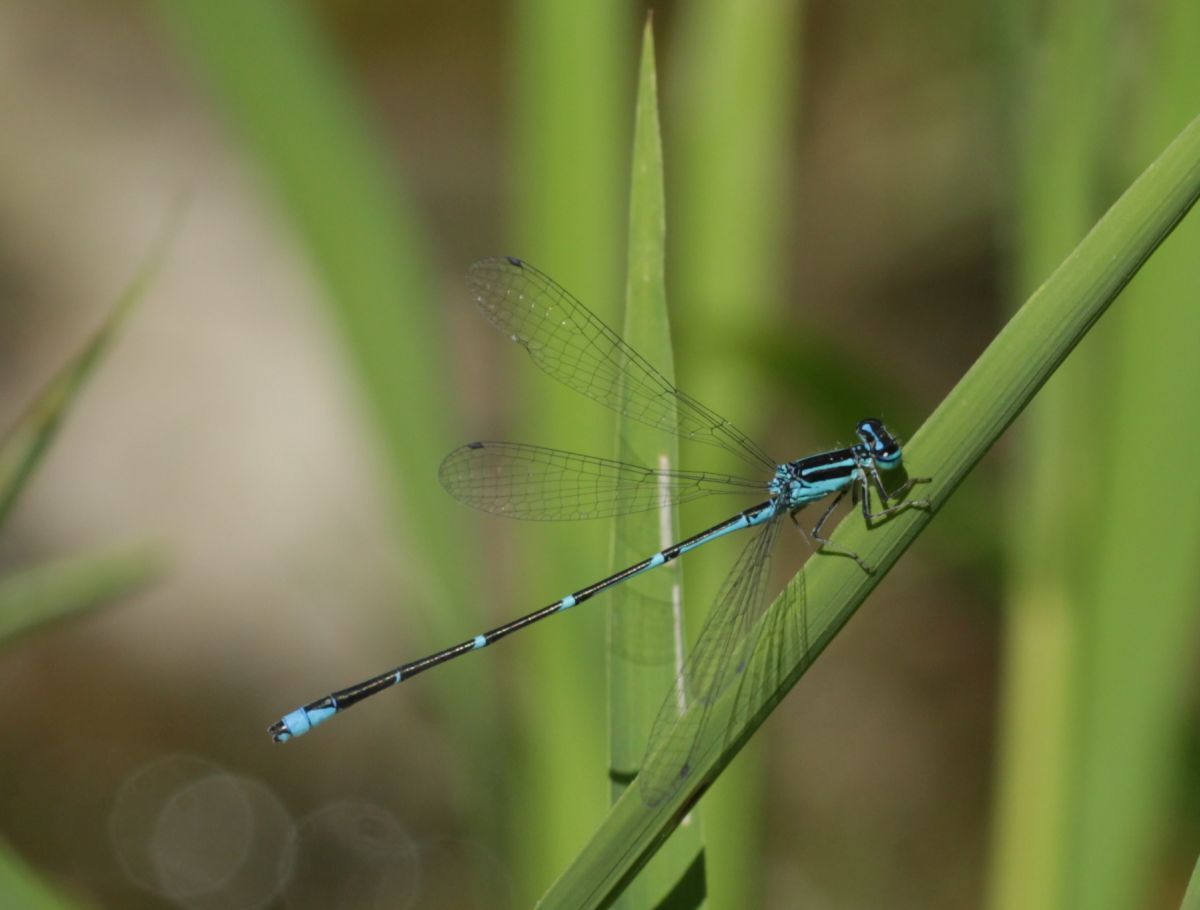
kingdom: Animalia
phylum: Arthropoda
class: Insecta
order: Odonata
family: Coenagrionidae
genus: Enallagma
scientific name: Enallagma exsulans
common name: Stream bluet
